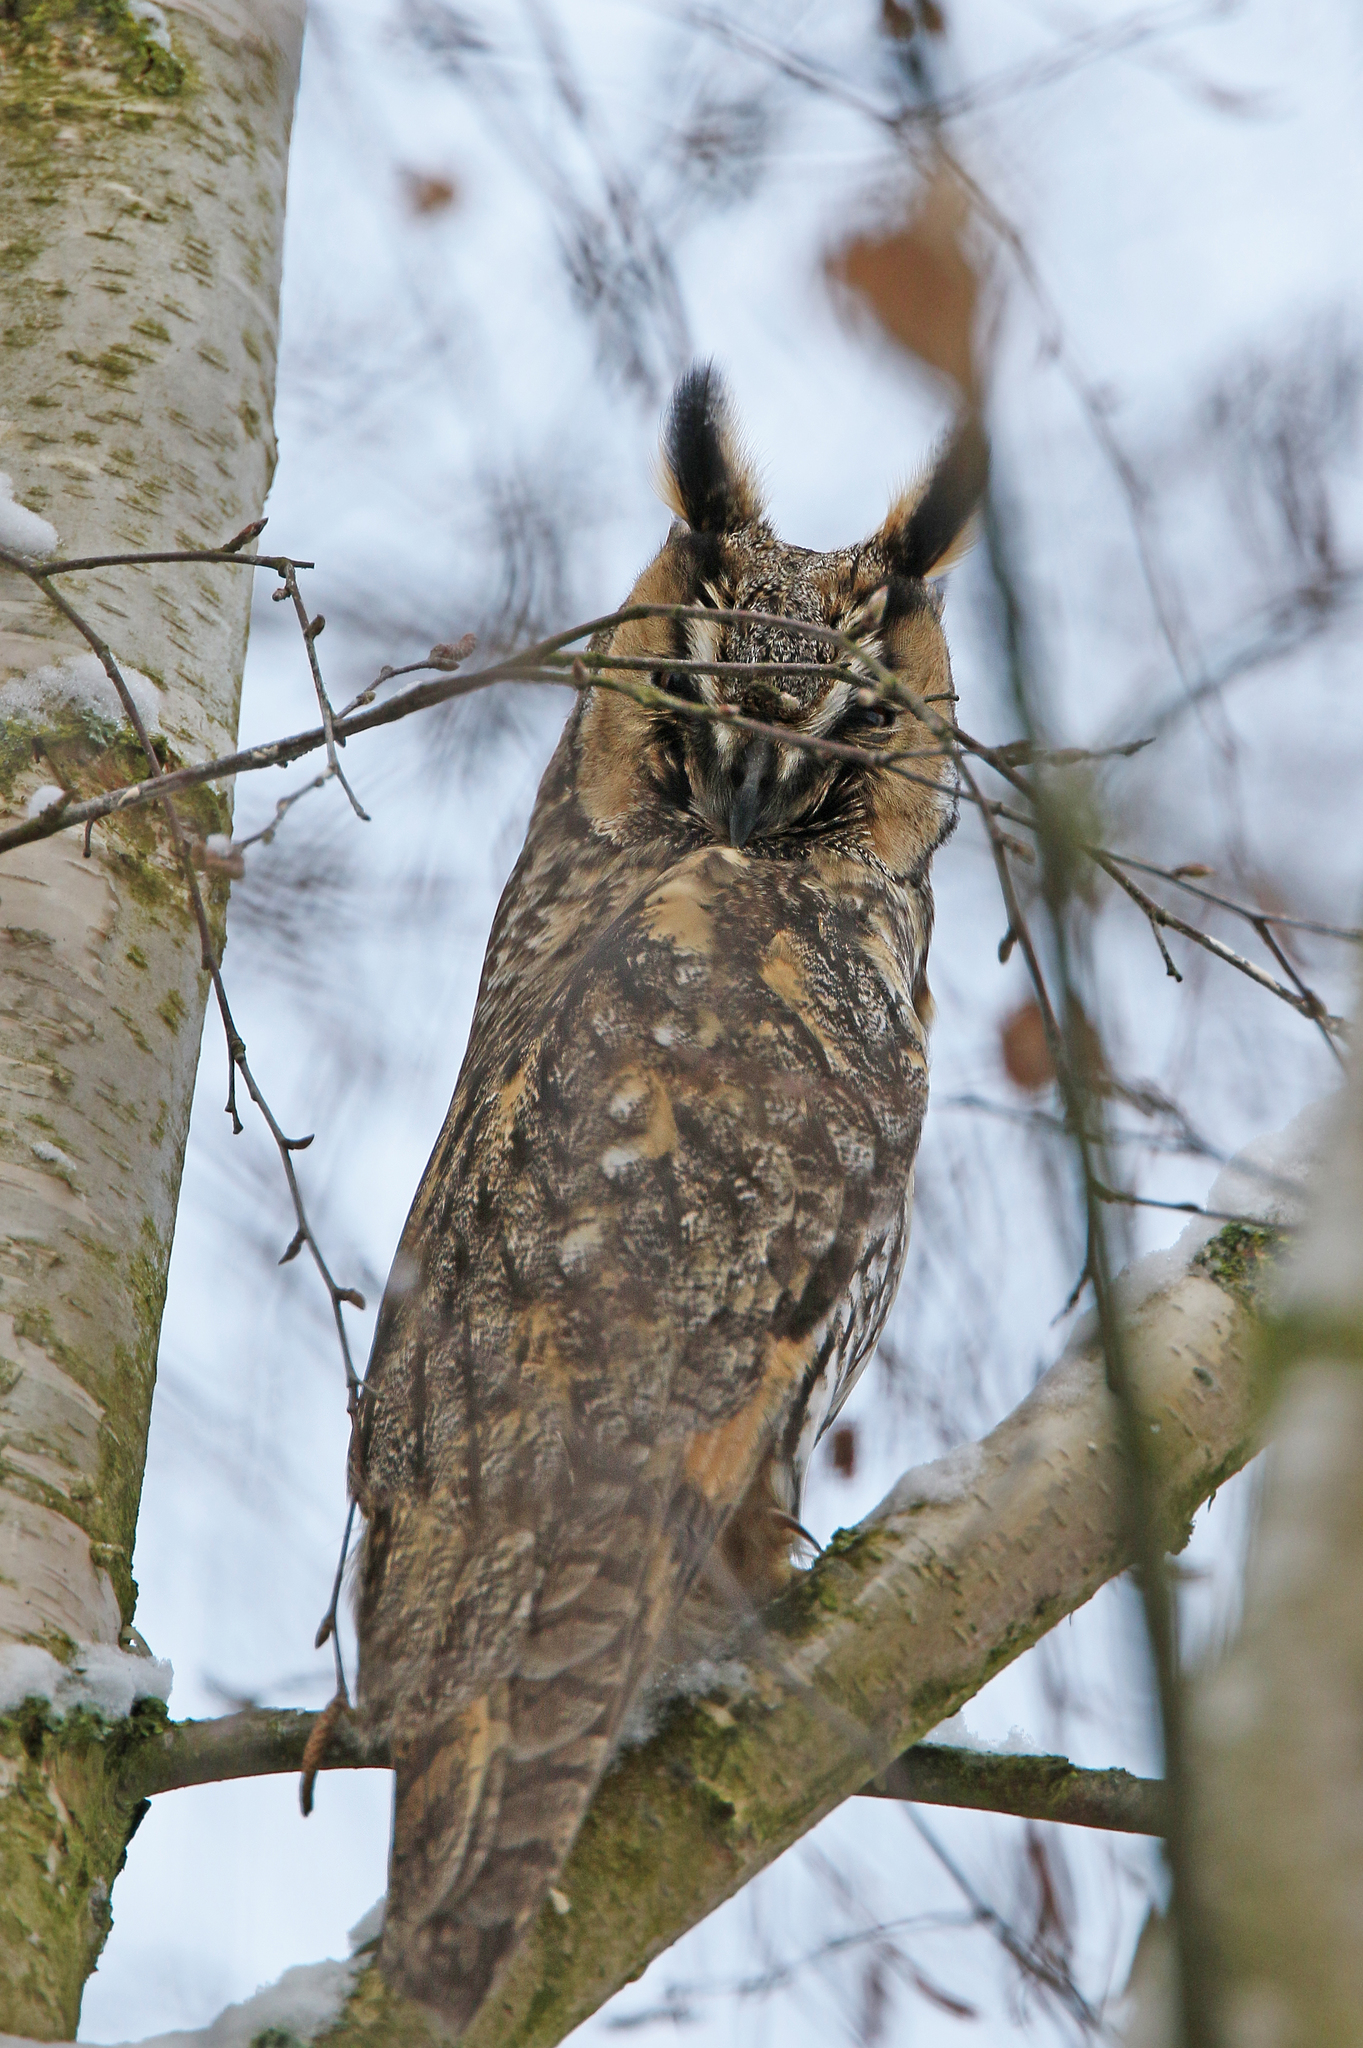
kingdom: Animalia
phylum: Chordata
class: Aves
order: Strigiformes
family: Strigidae
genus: Asio
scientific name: Asio otus
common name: Long-eared owl
